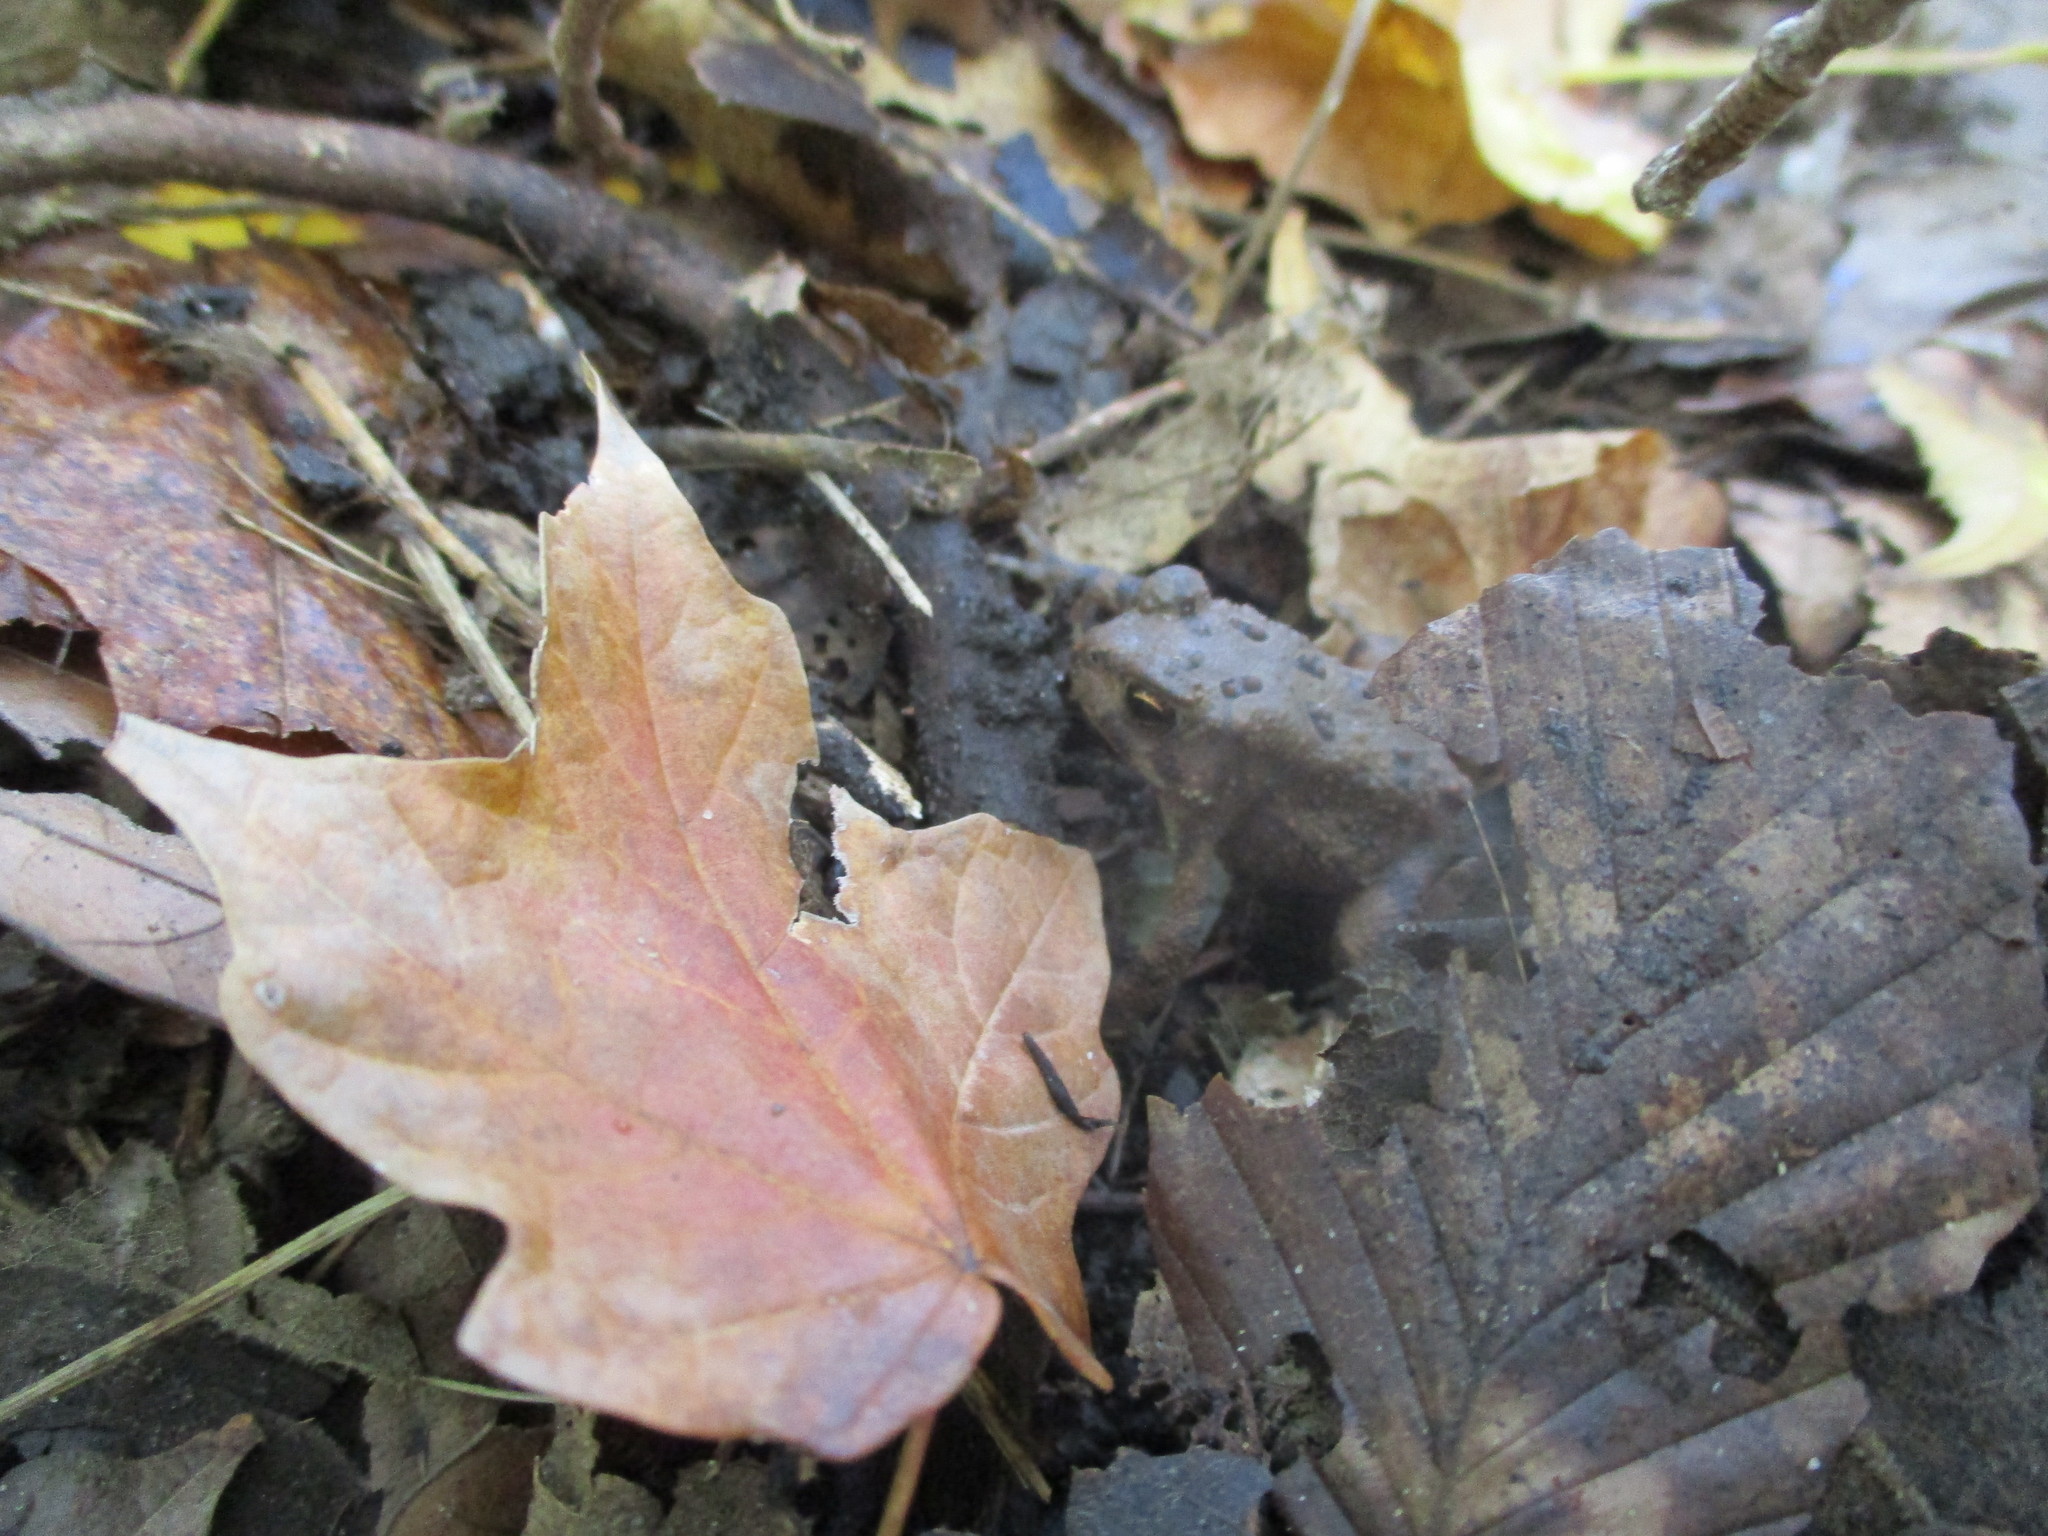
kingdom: Animalia
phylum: Chordata
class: Amphibia
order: Anura
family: Bufonidae
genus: Anaxyrus
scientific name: Anaxyrus americanus
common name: American toad
